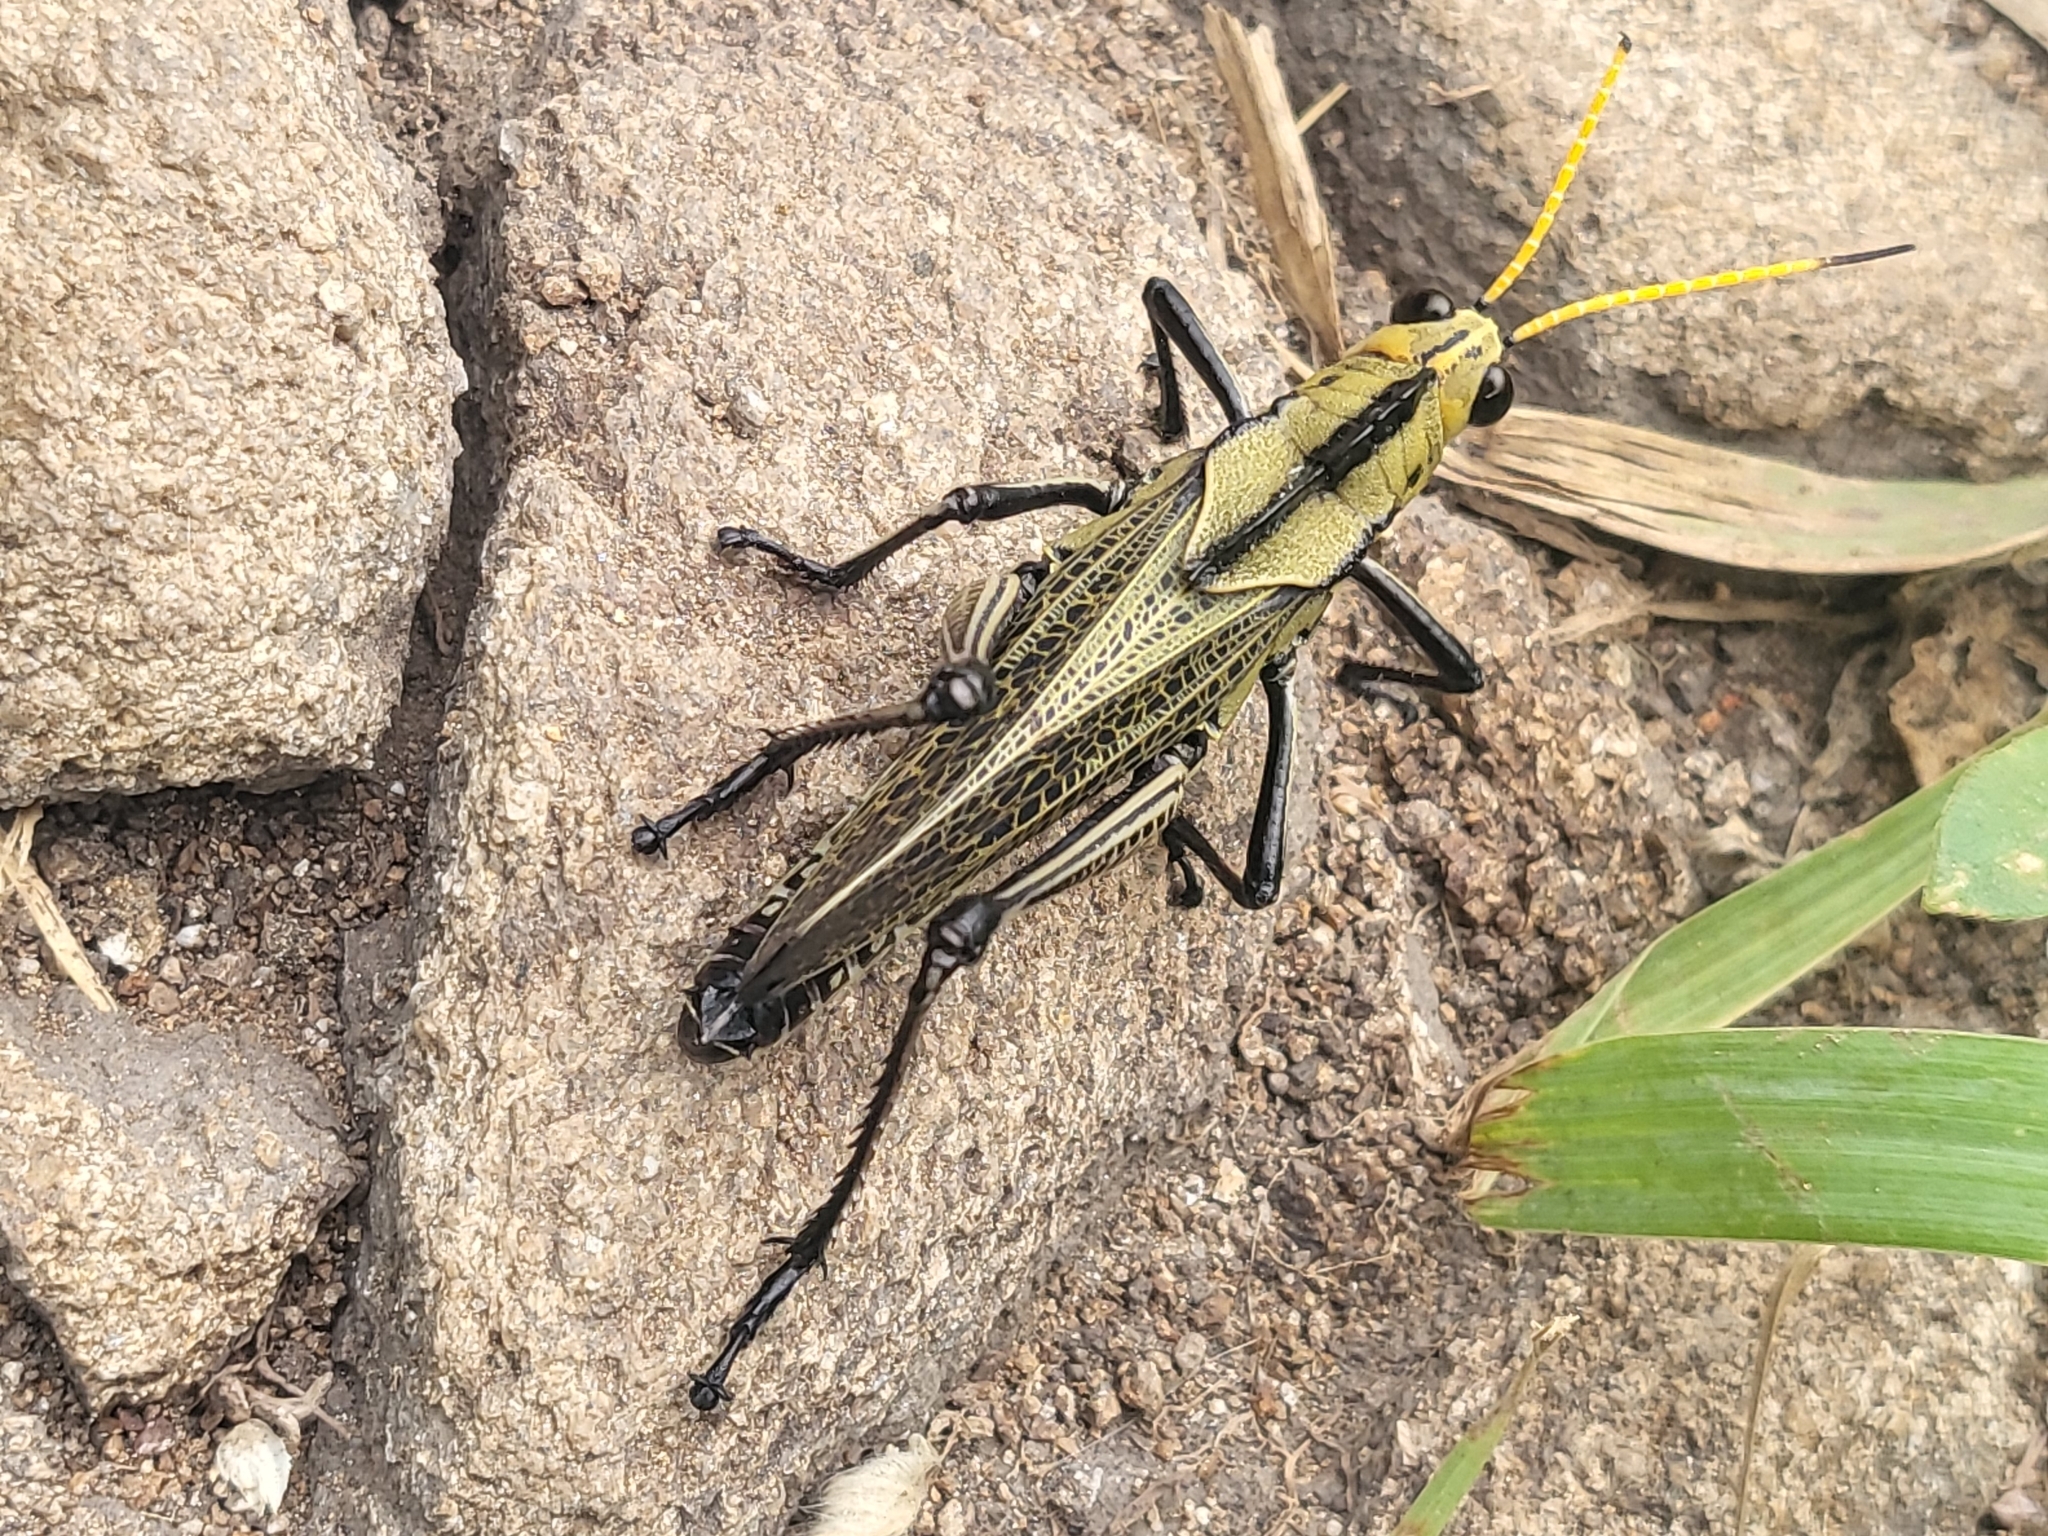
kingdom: Animalia
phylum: Arthropoda
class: Insecta
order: Orthoptera
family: Romaleidae
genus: Romalea
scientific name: Romalea
